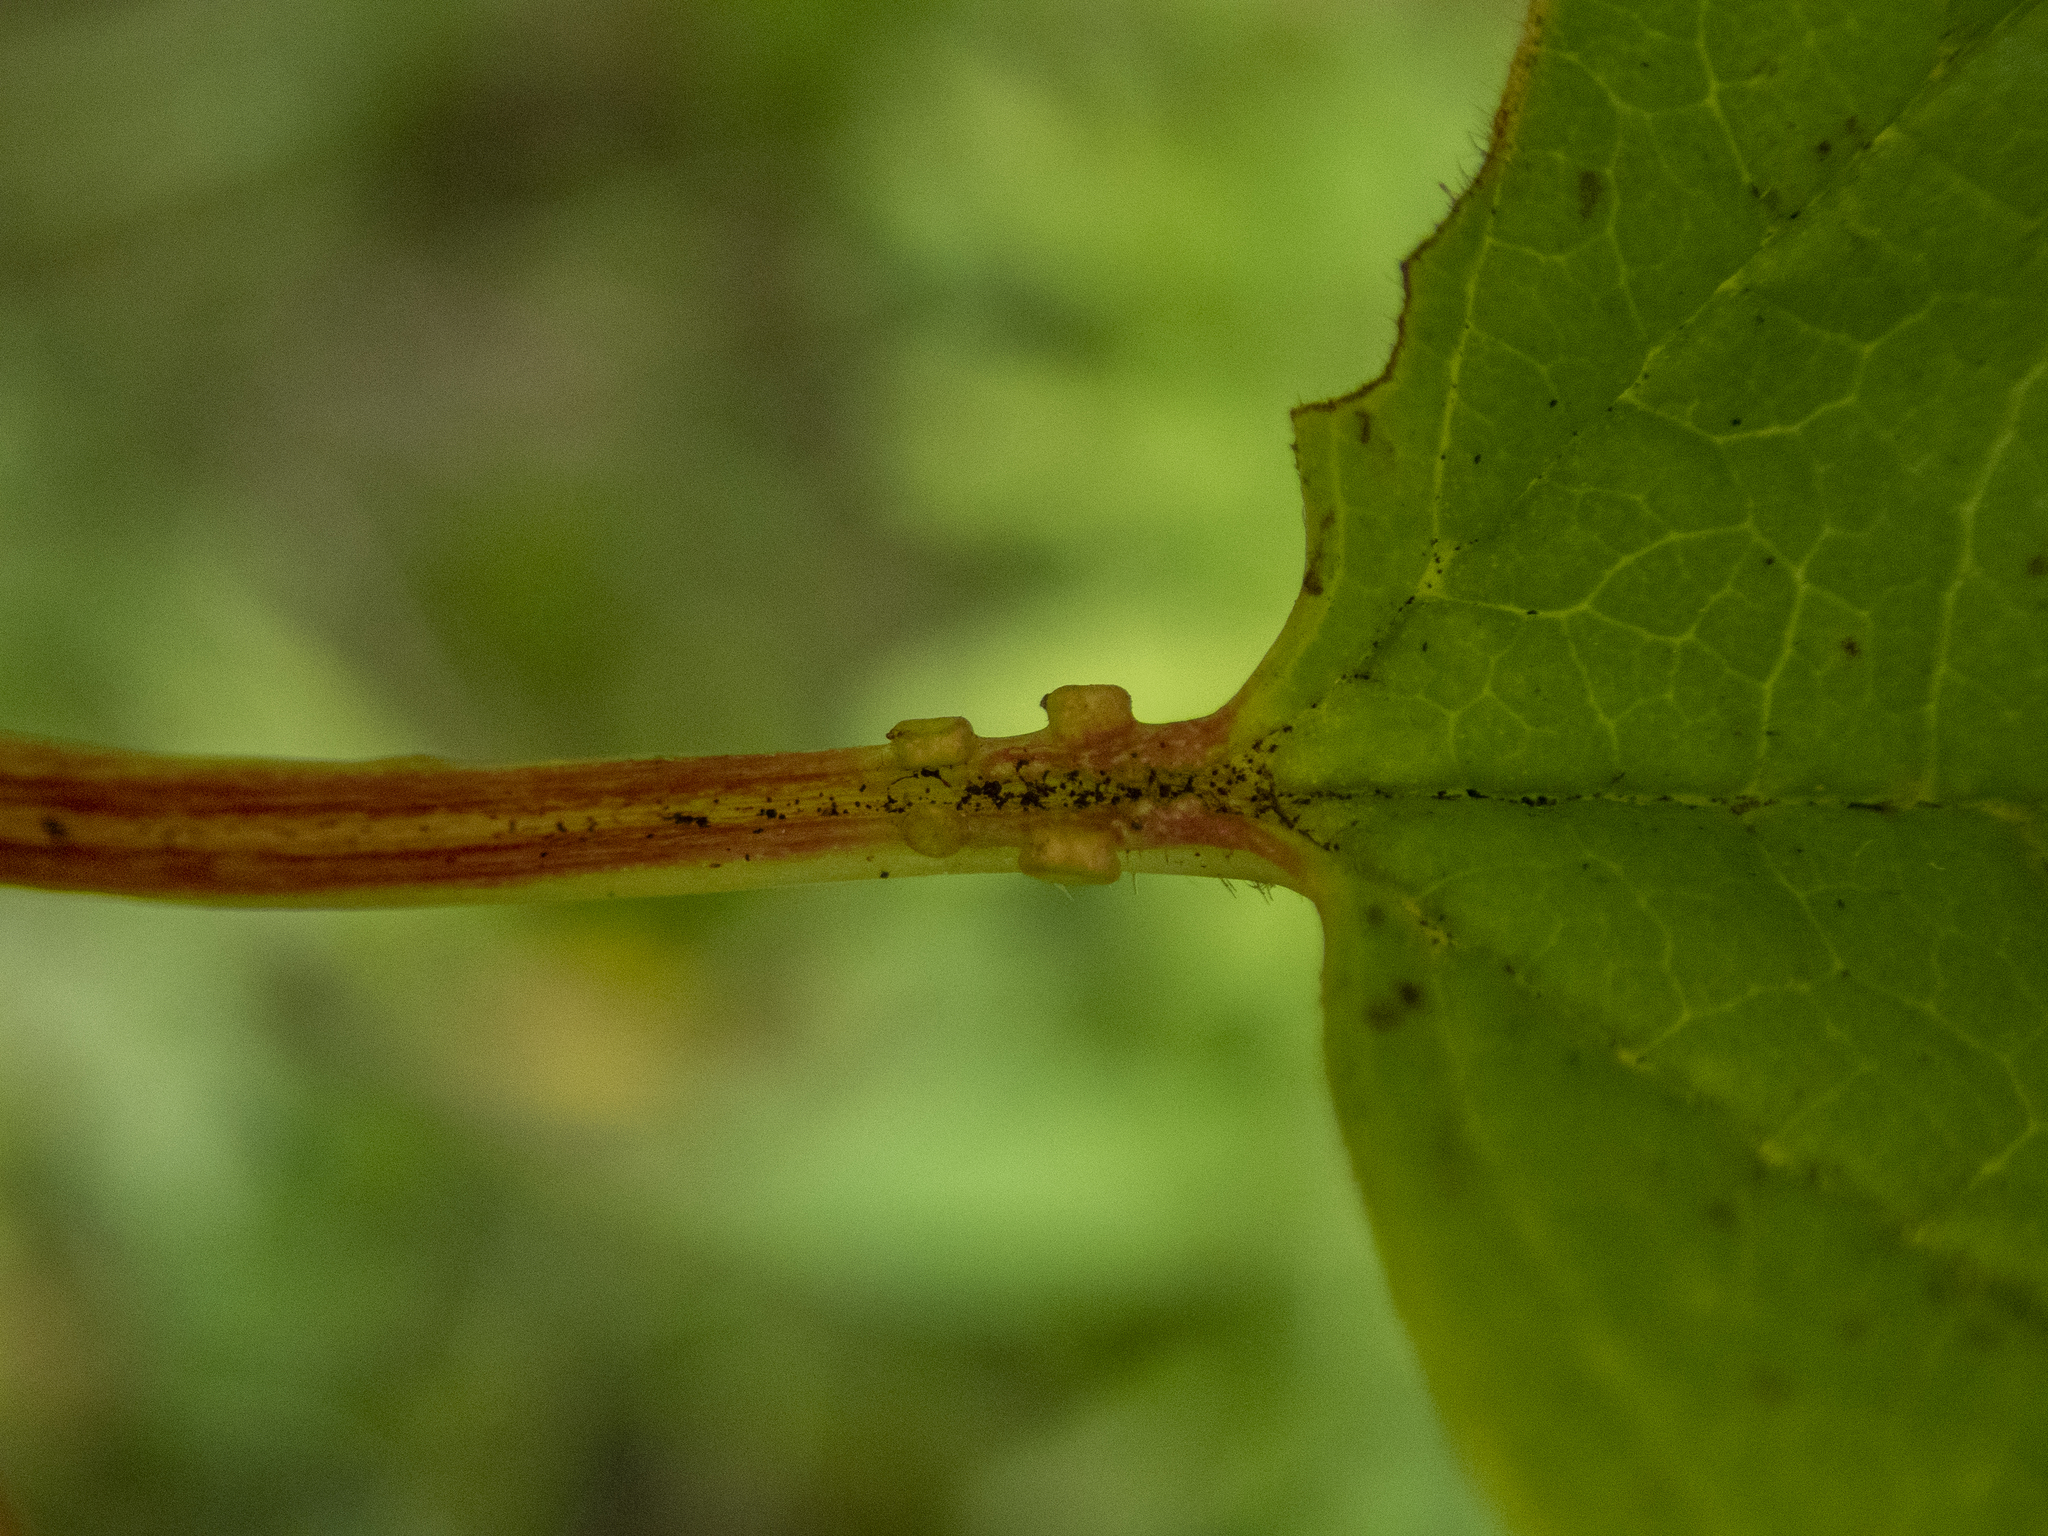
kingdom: Plantae
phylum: Tracheophyta
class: Magnoliopsida
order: Dipsacales
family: Viburnaceae
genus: Viburnum
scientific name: Viburnum opulus
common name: Guelder-rose
